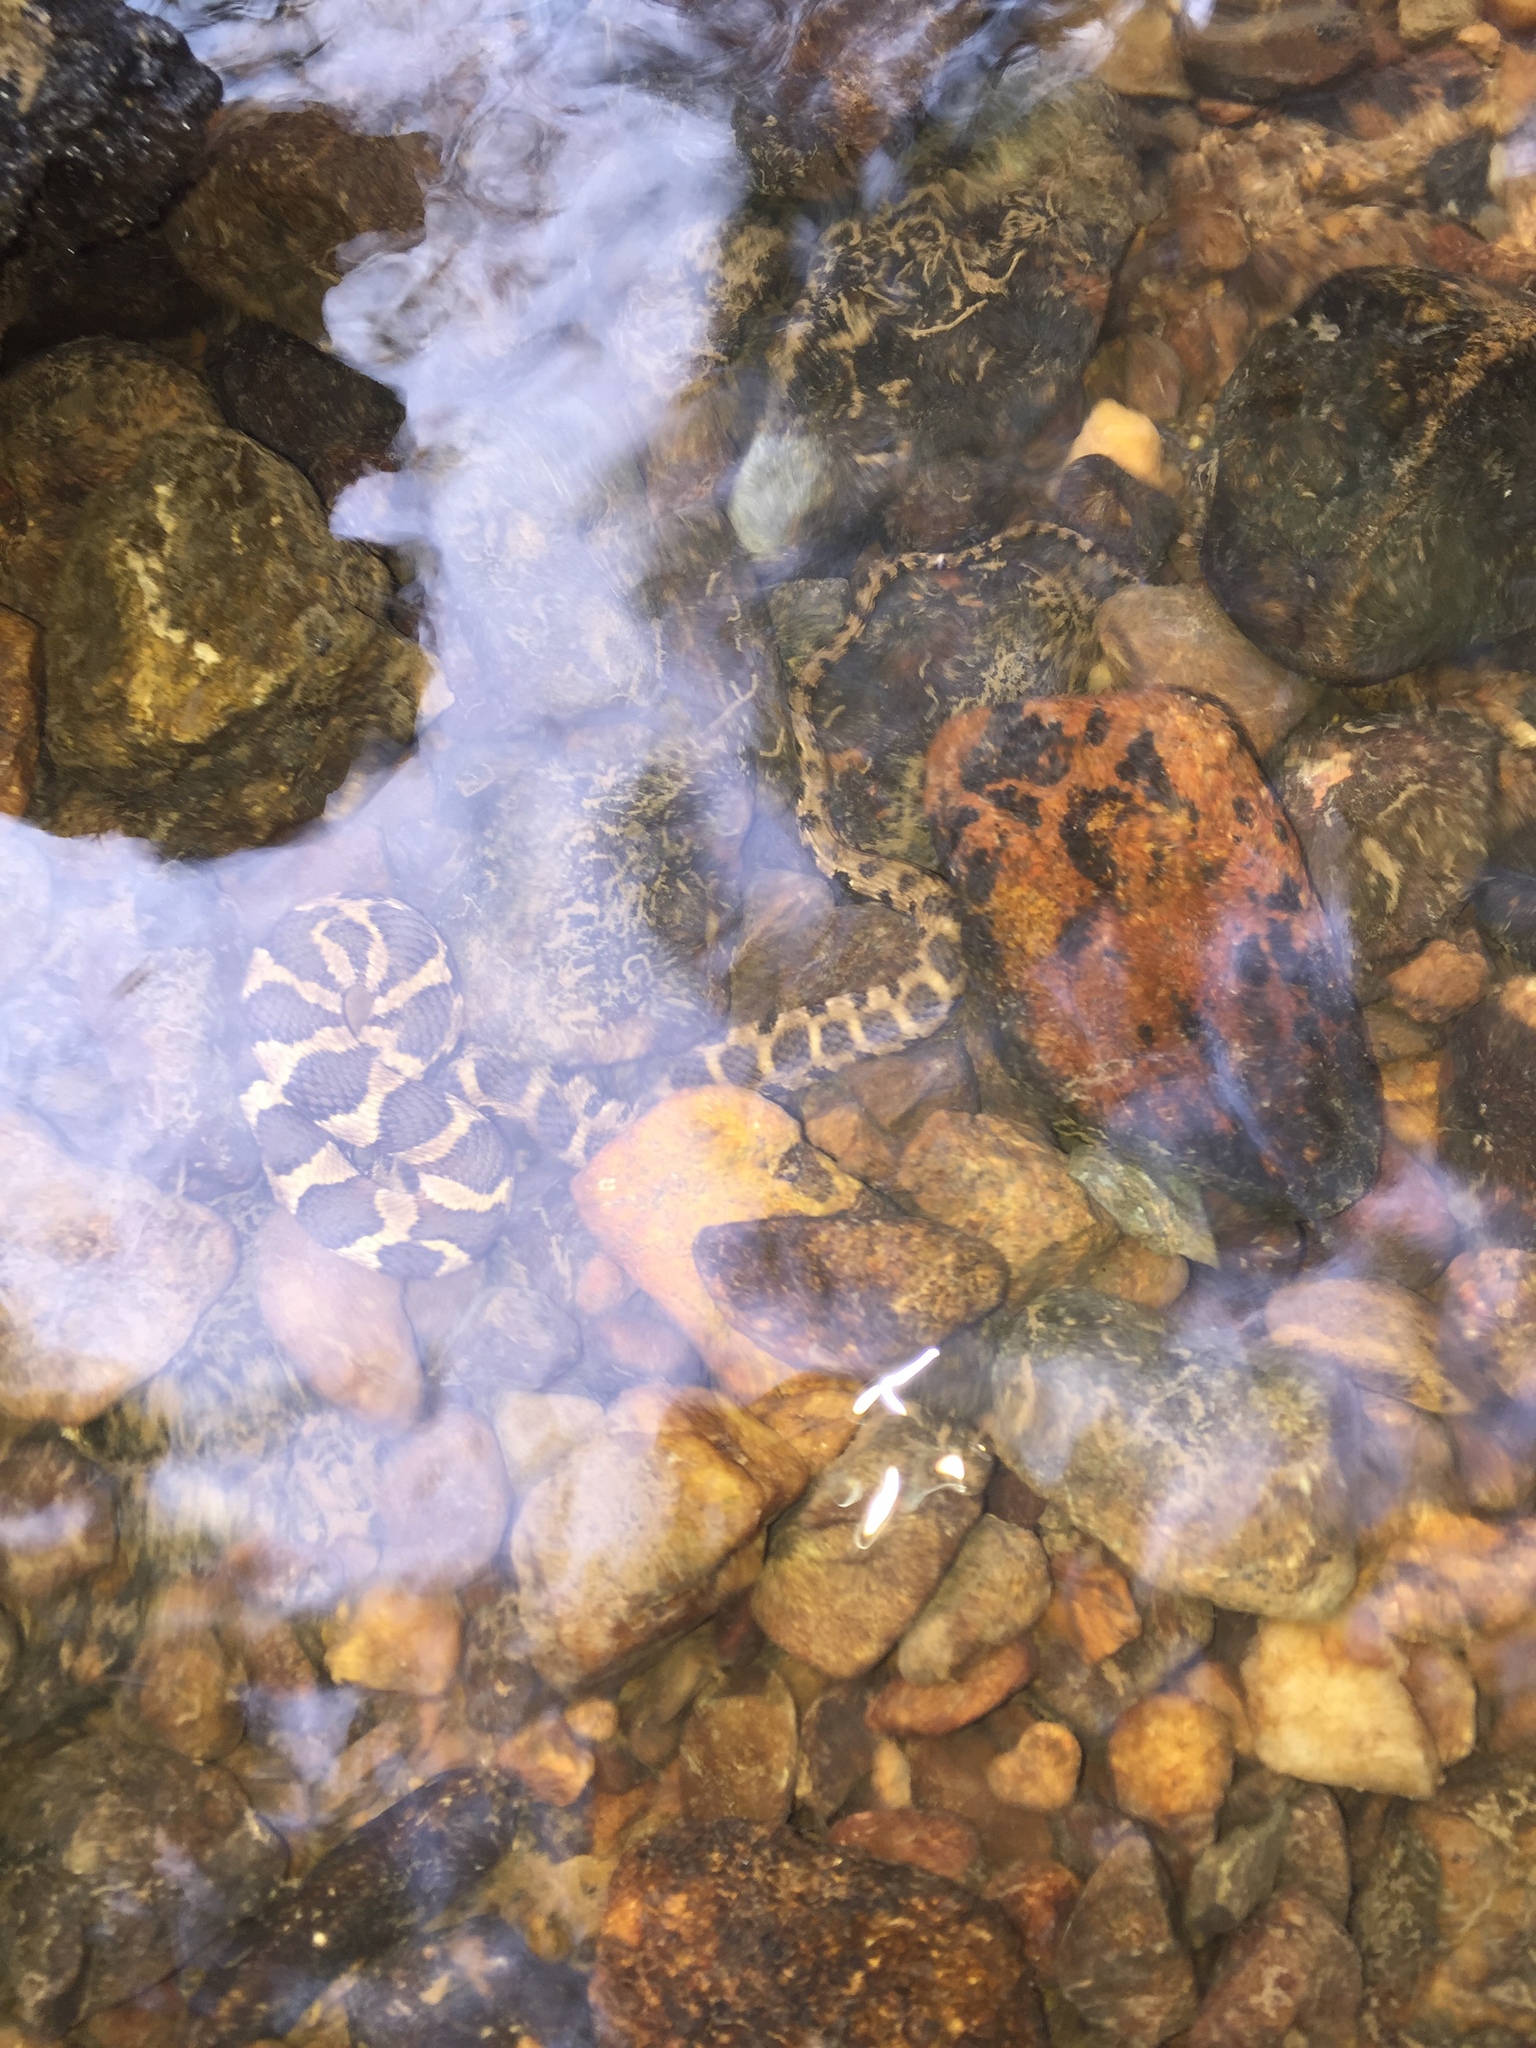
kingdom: Animalia
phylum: Chordata
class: Squamata
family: Colubridae
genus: Nerodia
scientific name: Nerodia sipedon
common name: Northern water snake
